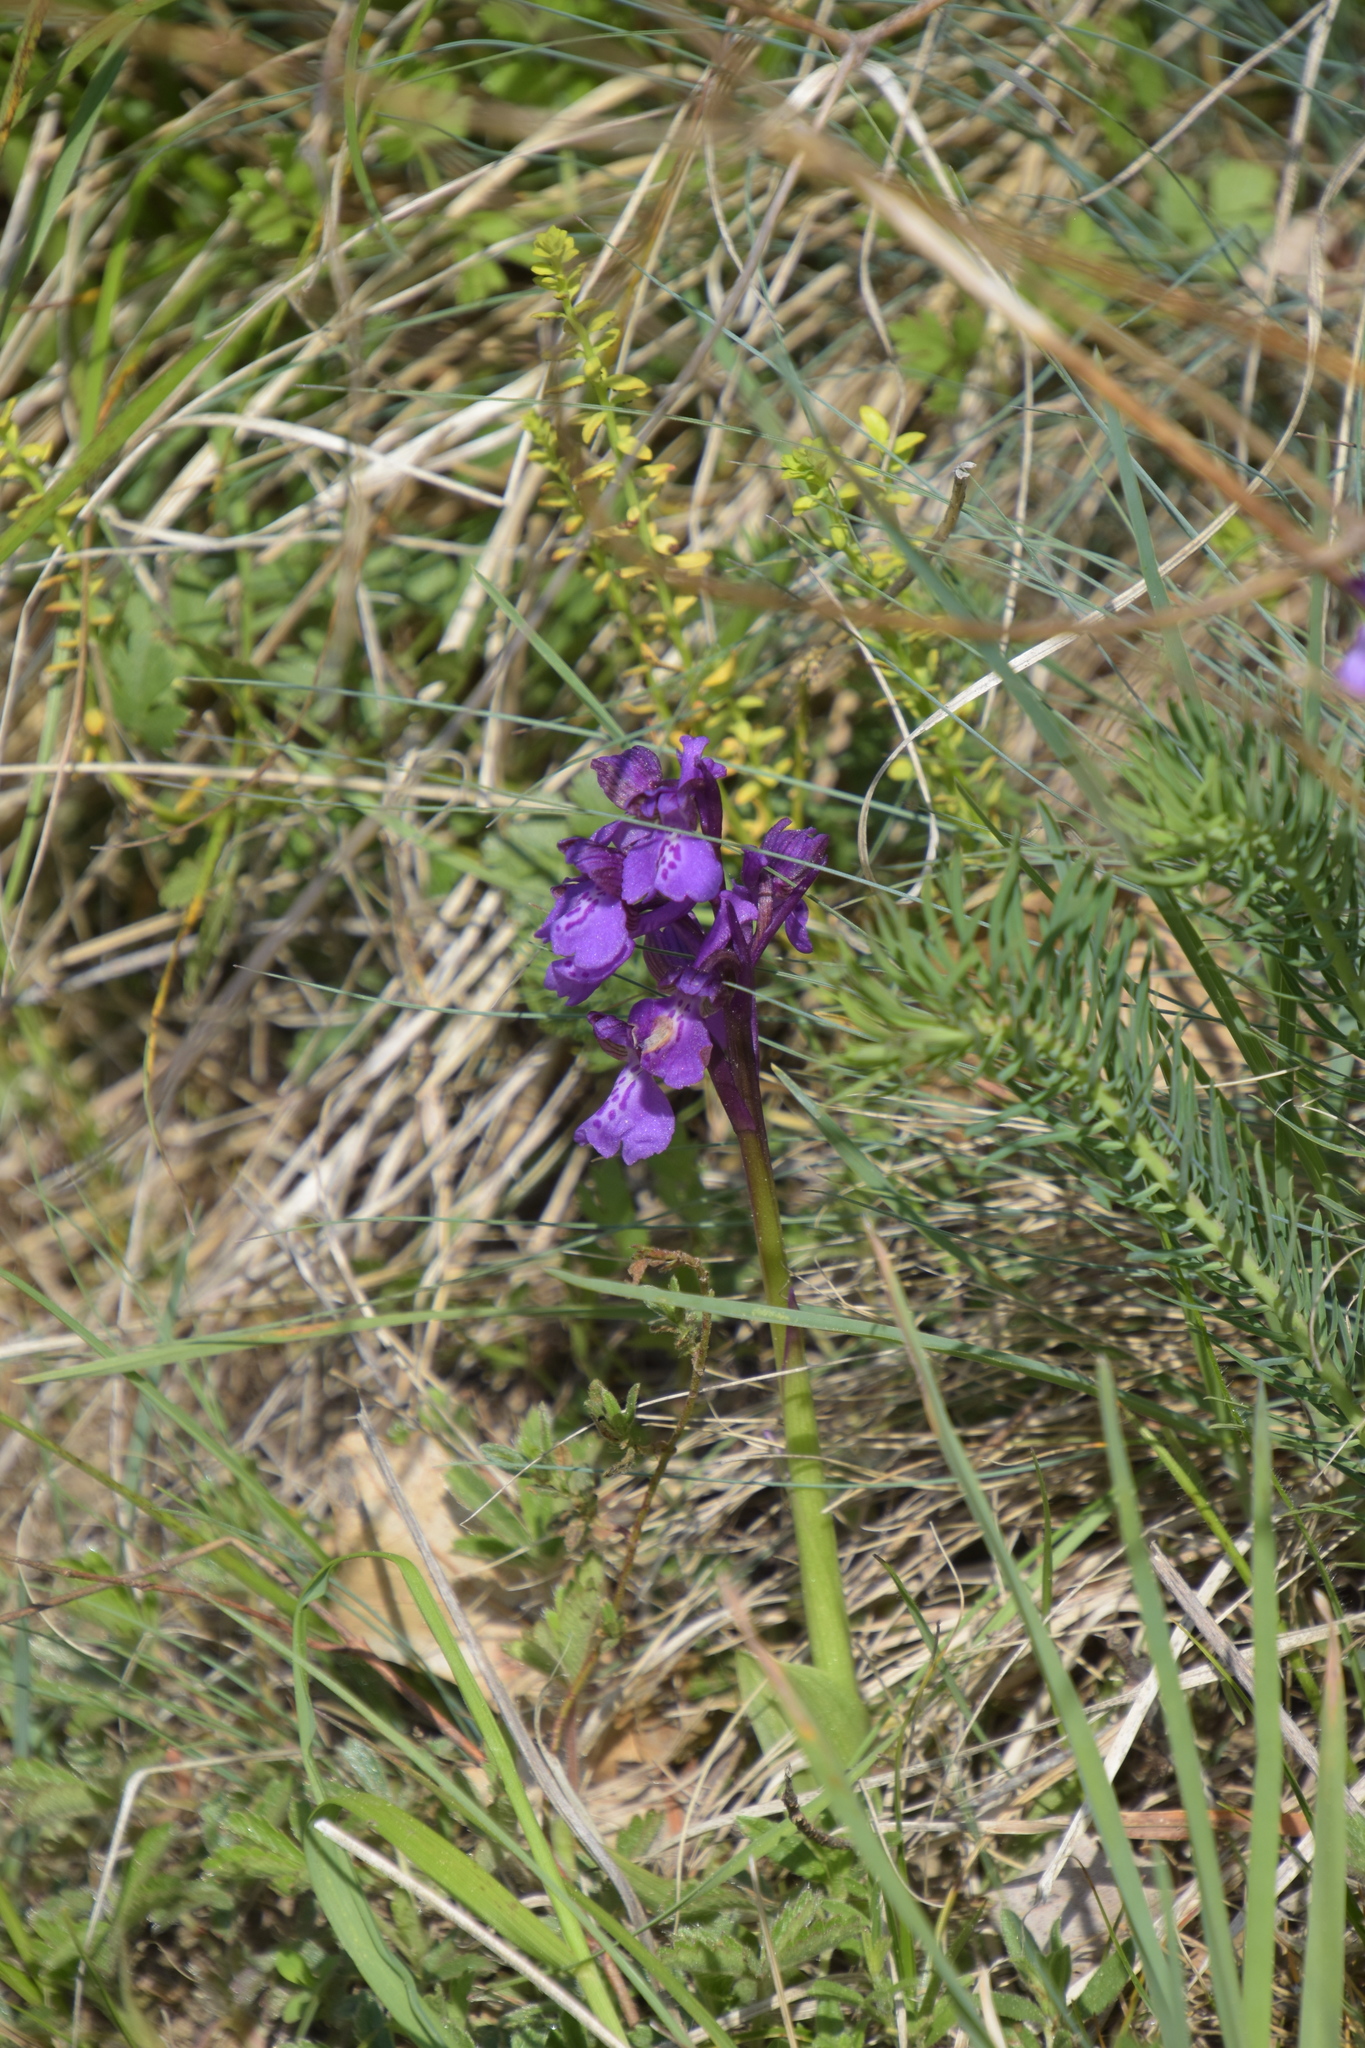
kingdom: Plantae
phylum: Tracheophyta
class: Liliopsida
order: Asparagales
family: Orchidaceae
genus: Anacamptis
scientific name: Anacamptis morio
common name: Green-winged orchid
